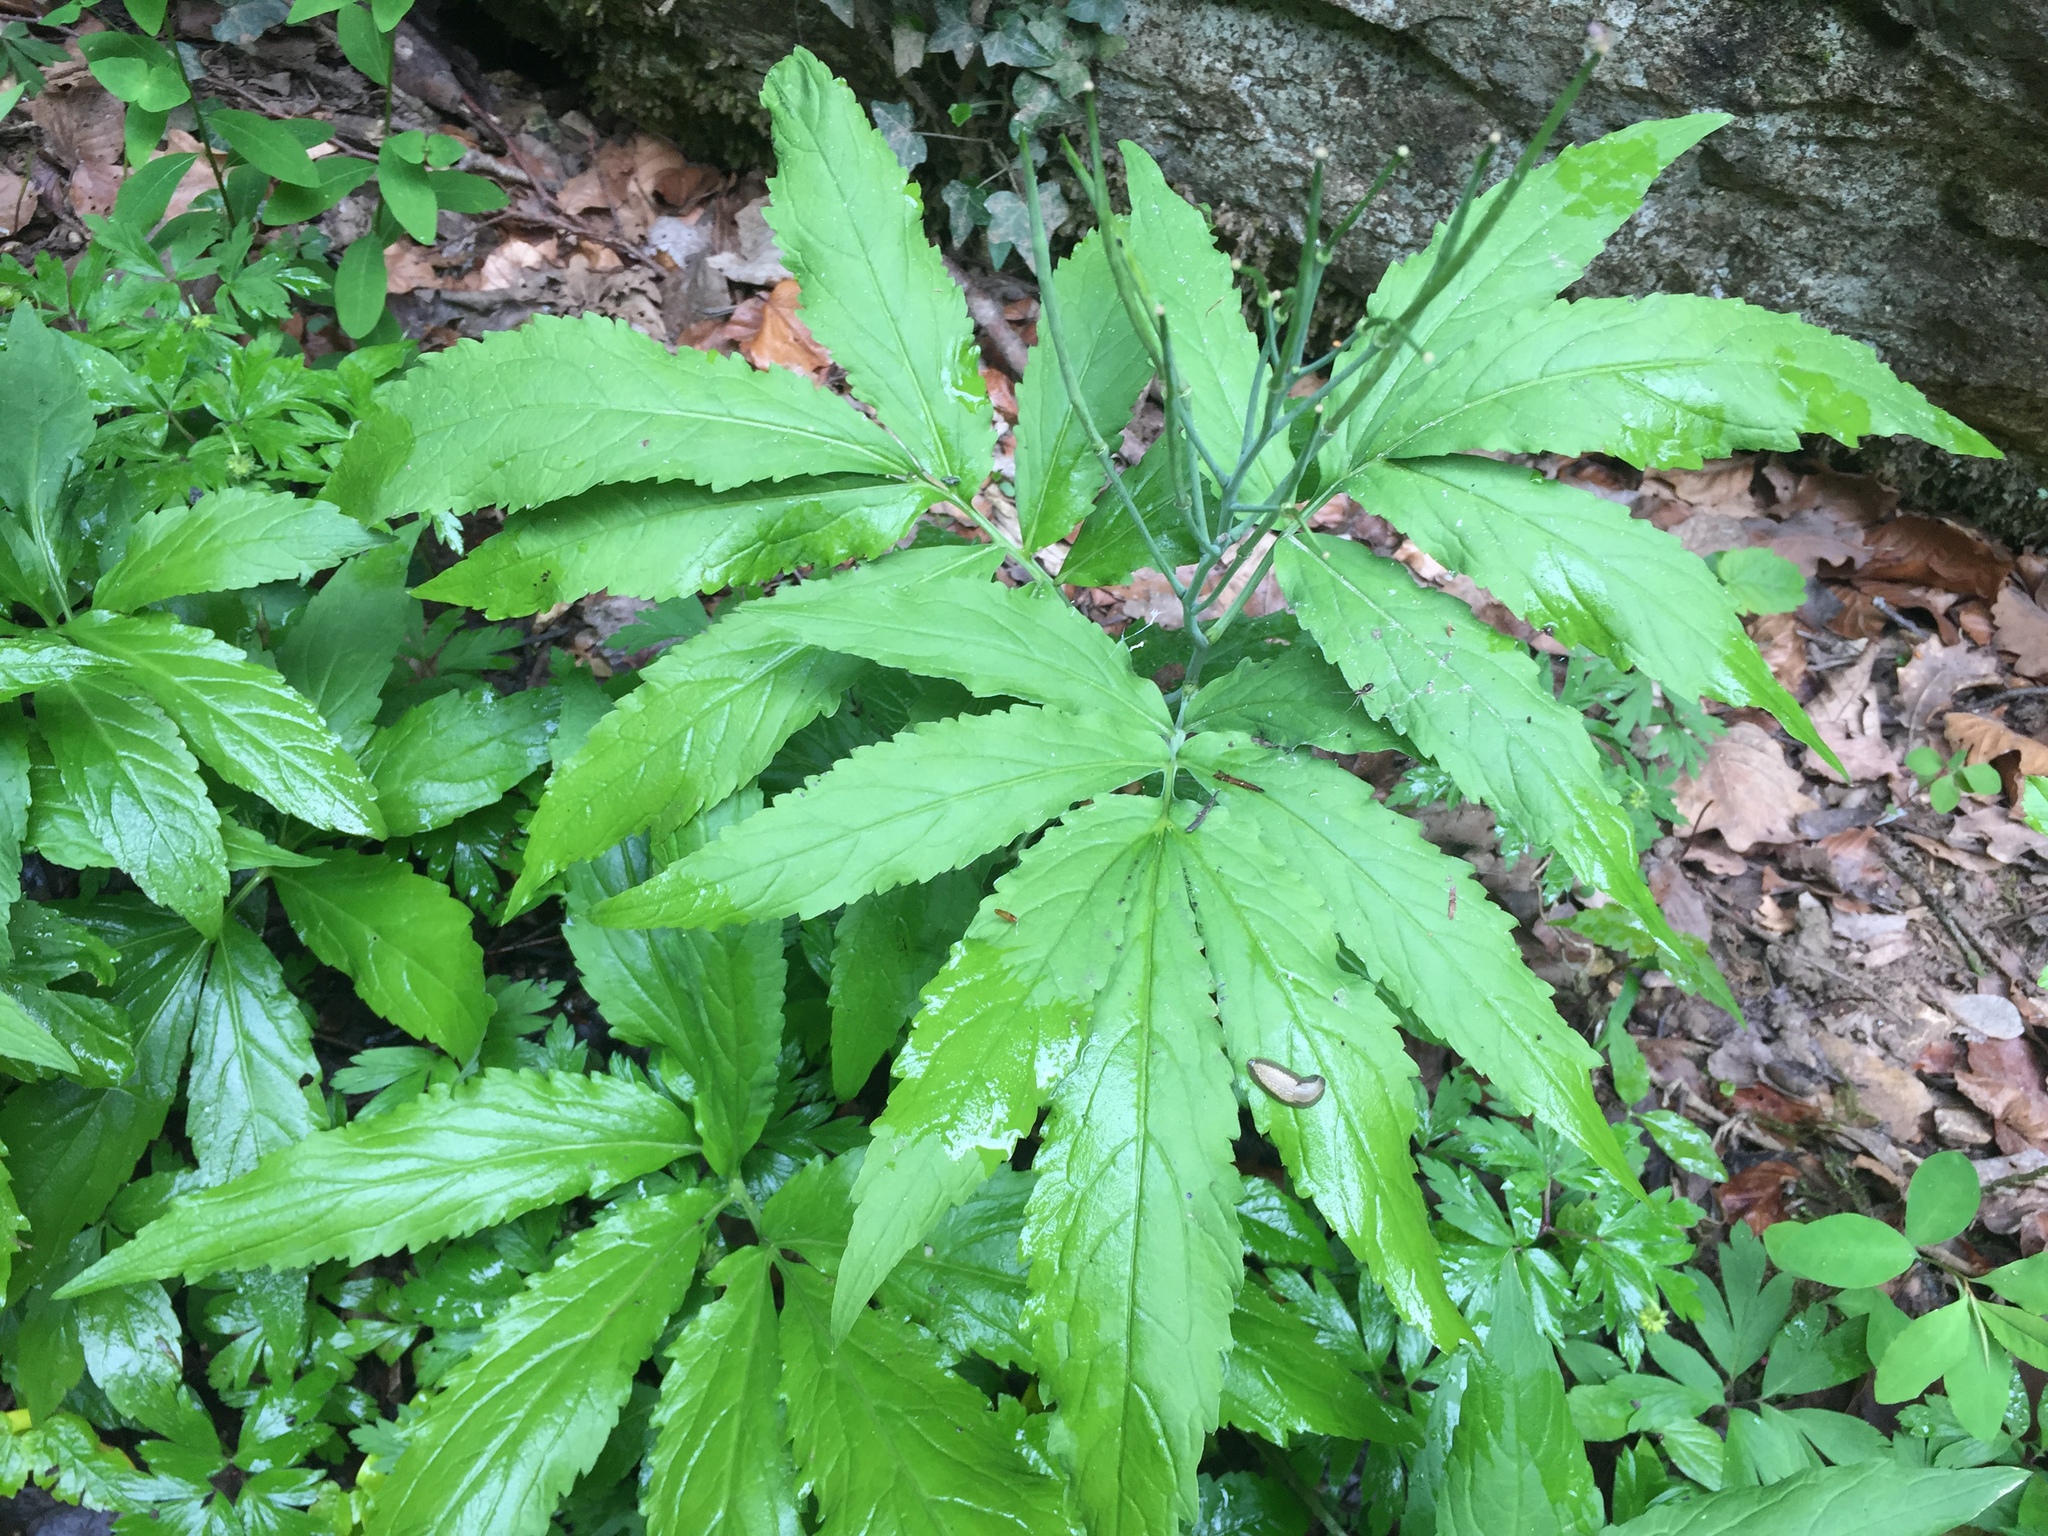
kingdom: Plantae
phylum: Tracheophyta
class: Magnoliopsida
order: Brassicales
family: Brassicaceae
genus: Cardamine
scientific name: Cardamine heptaphylla
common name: Pinnate coralroot
